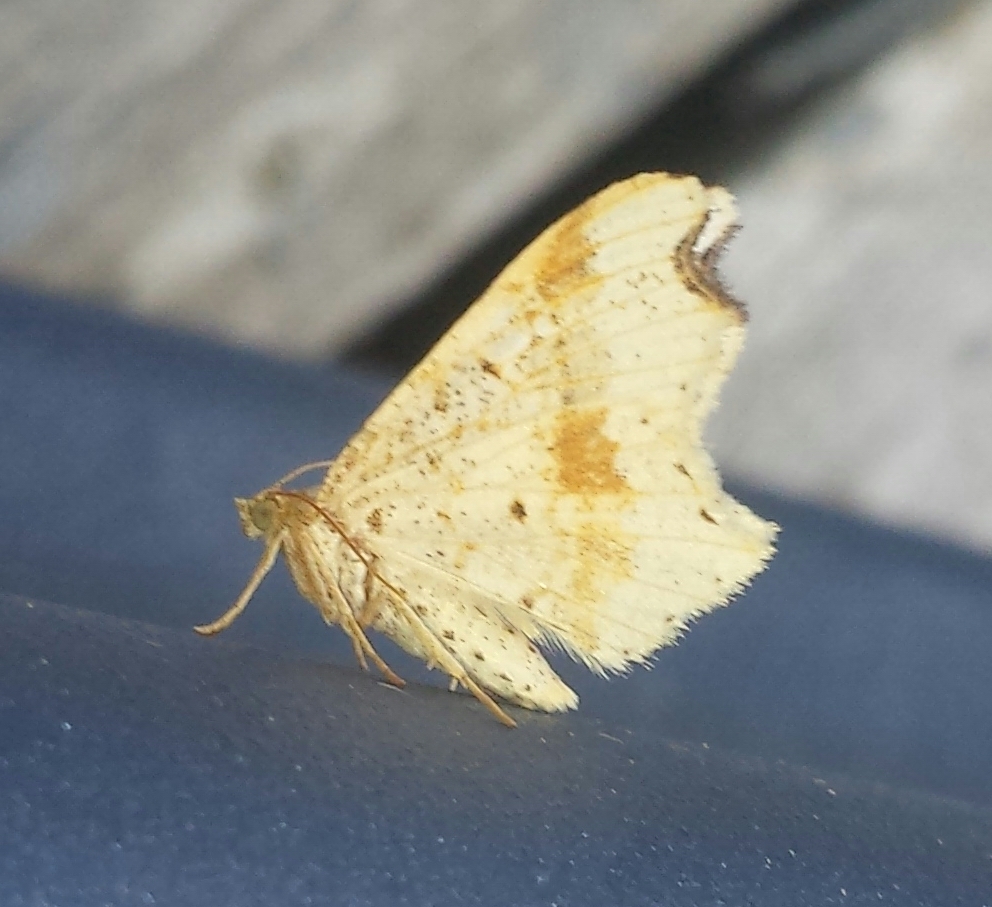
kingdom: Animalia
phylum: Arthropoda
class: Insecta
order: Lepidoptera
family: Geometridae
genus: Macaria
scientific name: Macaria aemulataria
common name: Common angle
